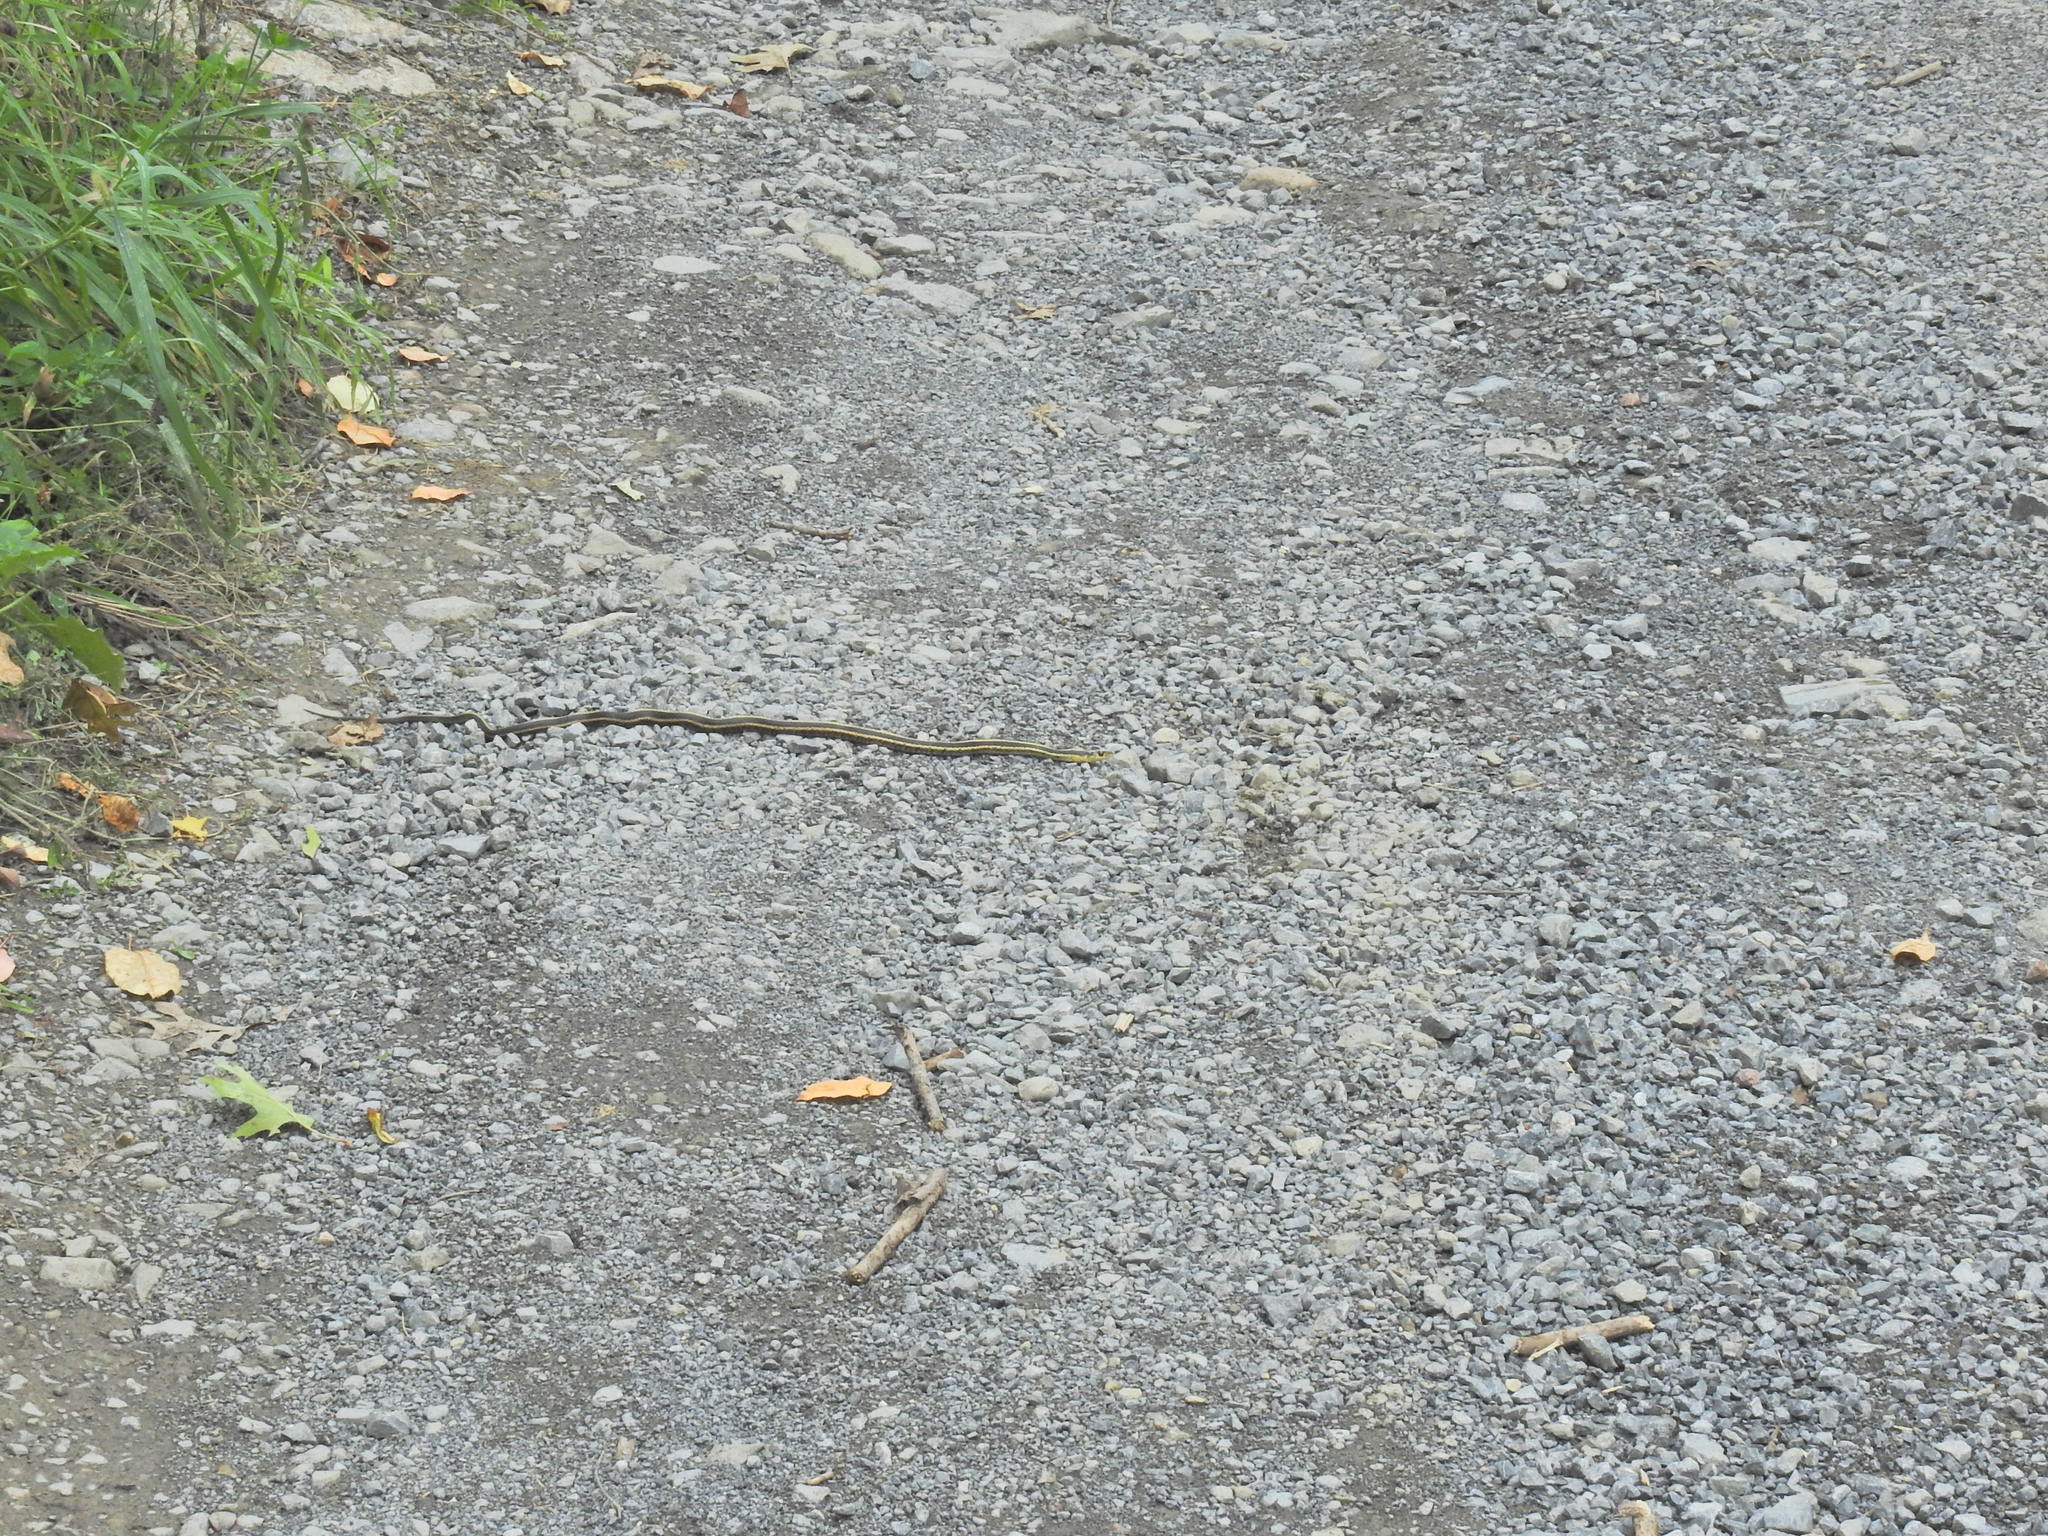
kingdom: Animalia
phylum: Chordata
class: Squamata
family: Colubridae
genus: Thamnophis
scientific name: Thamnophis sirtalis
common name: Common garter snake
